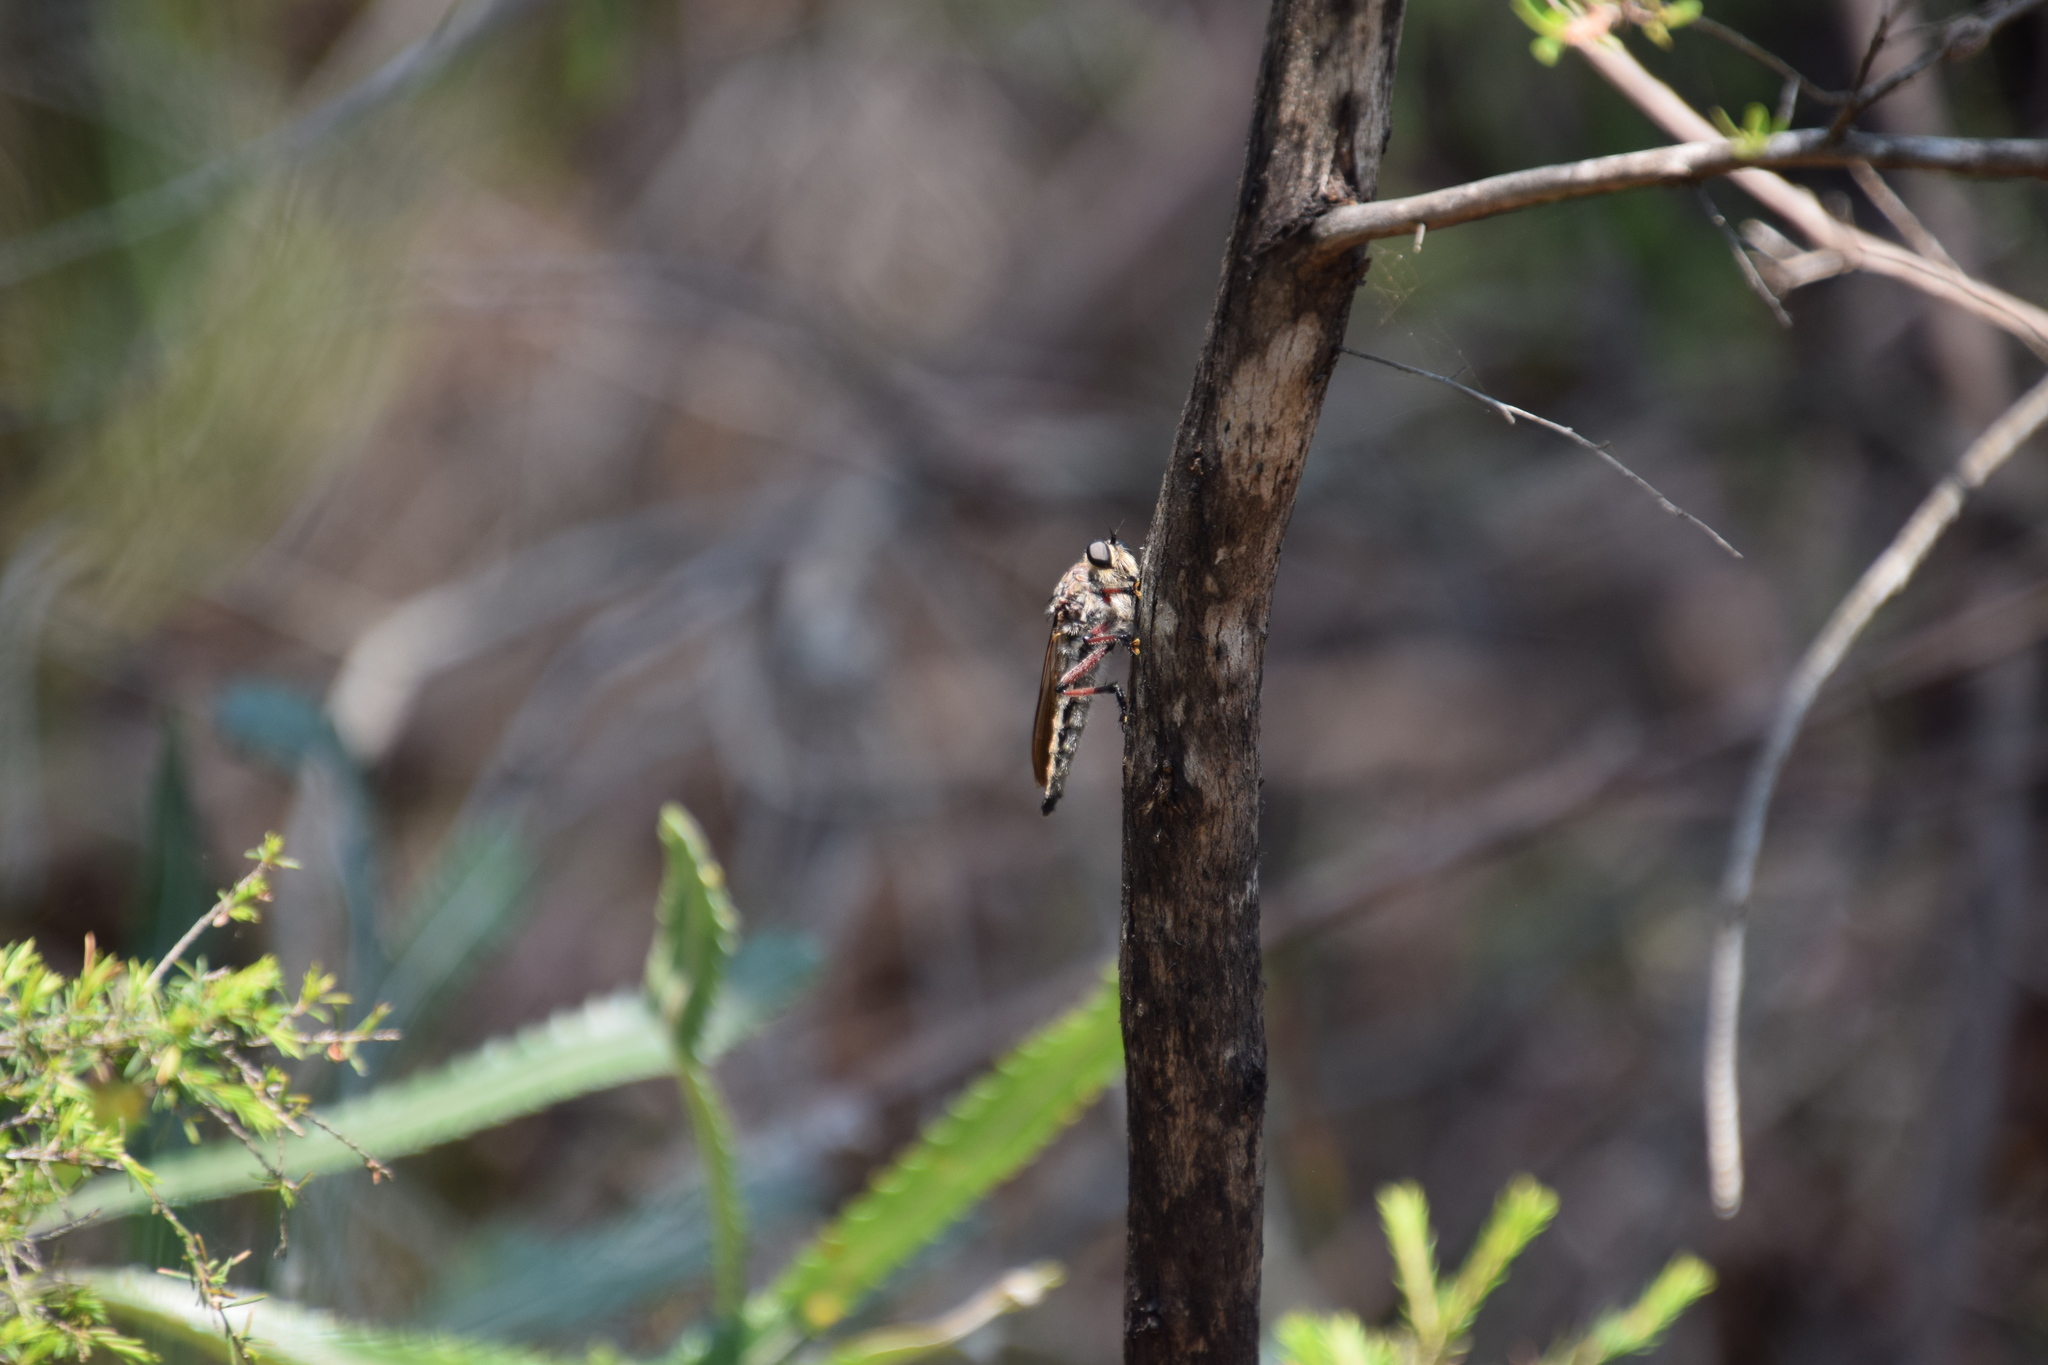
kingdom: Animalia
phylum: Arthropoda
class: Insecta
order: Diptera
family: Asilidae
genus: Neoaratus
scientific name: Neoaratus hercules
